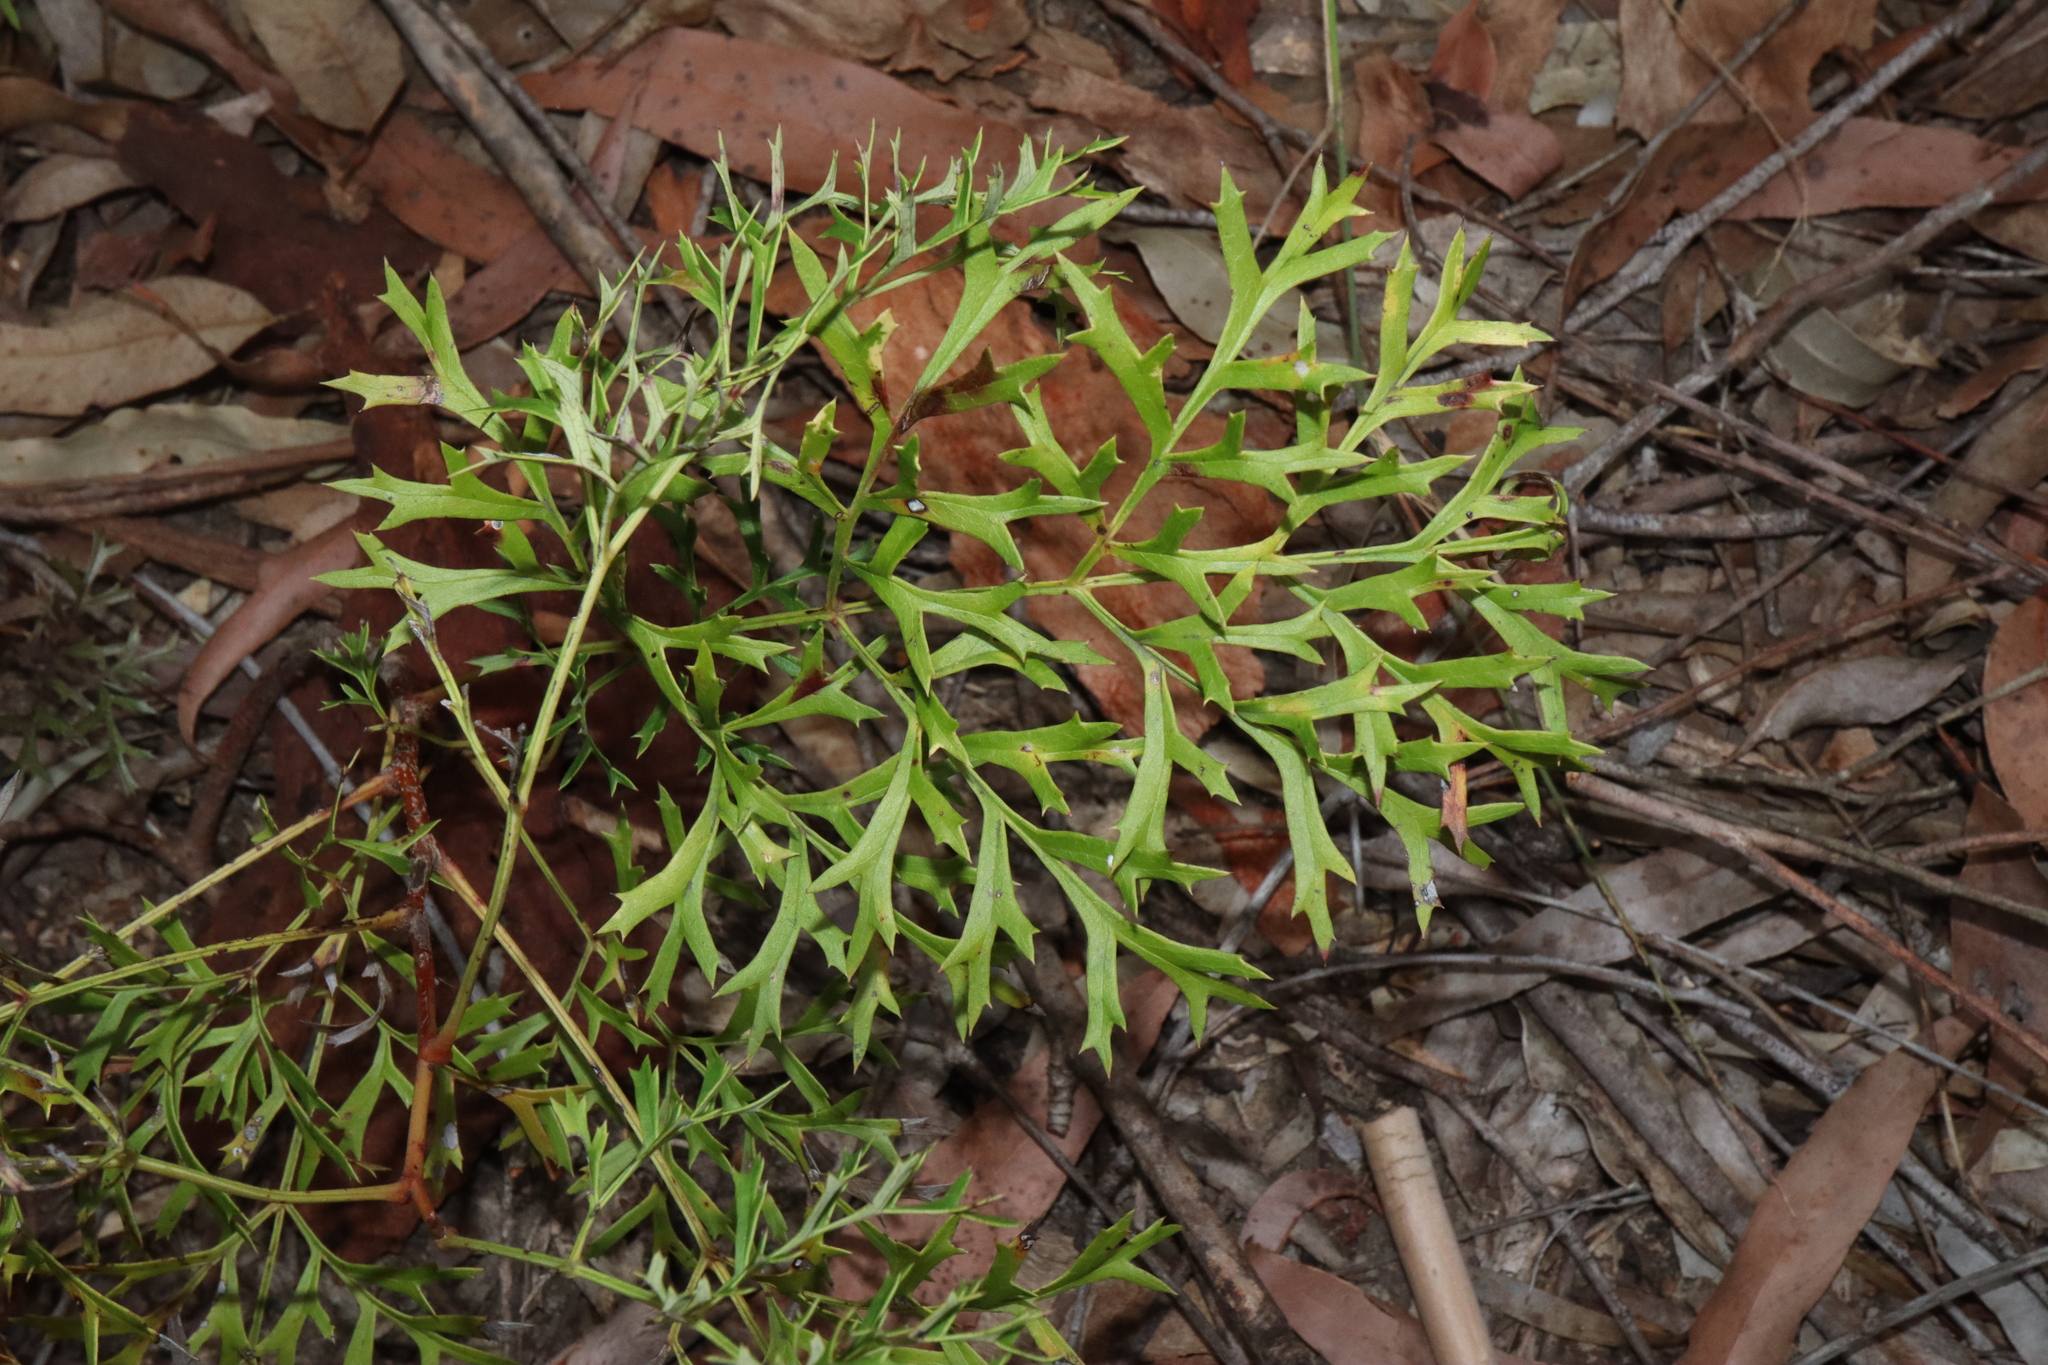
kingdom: Plantae
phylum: Tracheophyta
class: Magnoliopsida
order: Proteales
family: Proteaceae
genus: Lomatia
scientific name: Lomatia silaifolia
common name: Crinklebush
